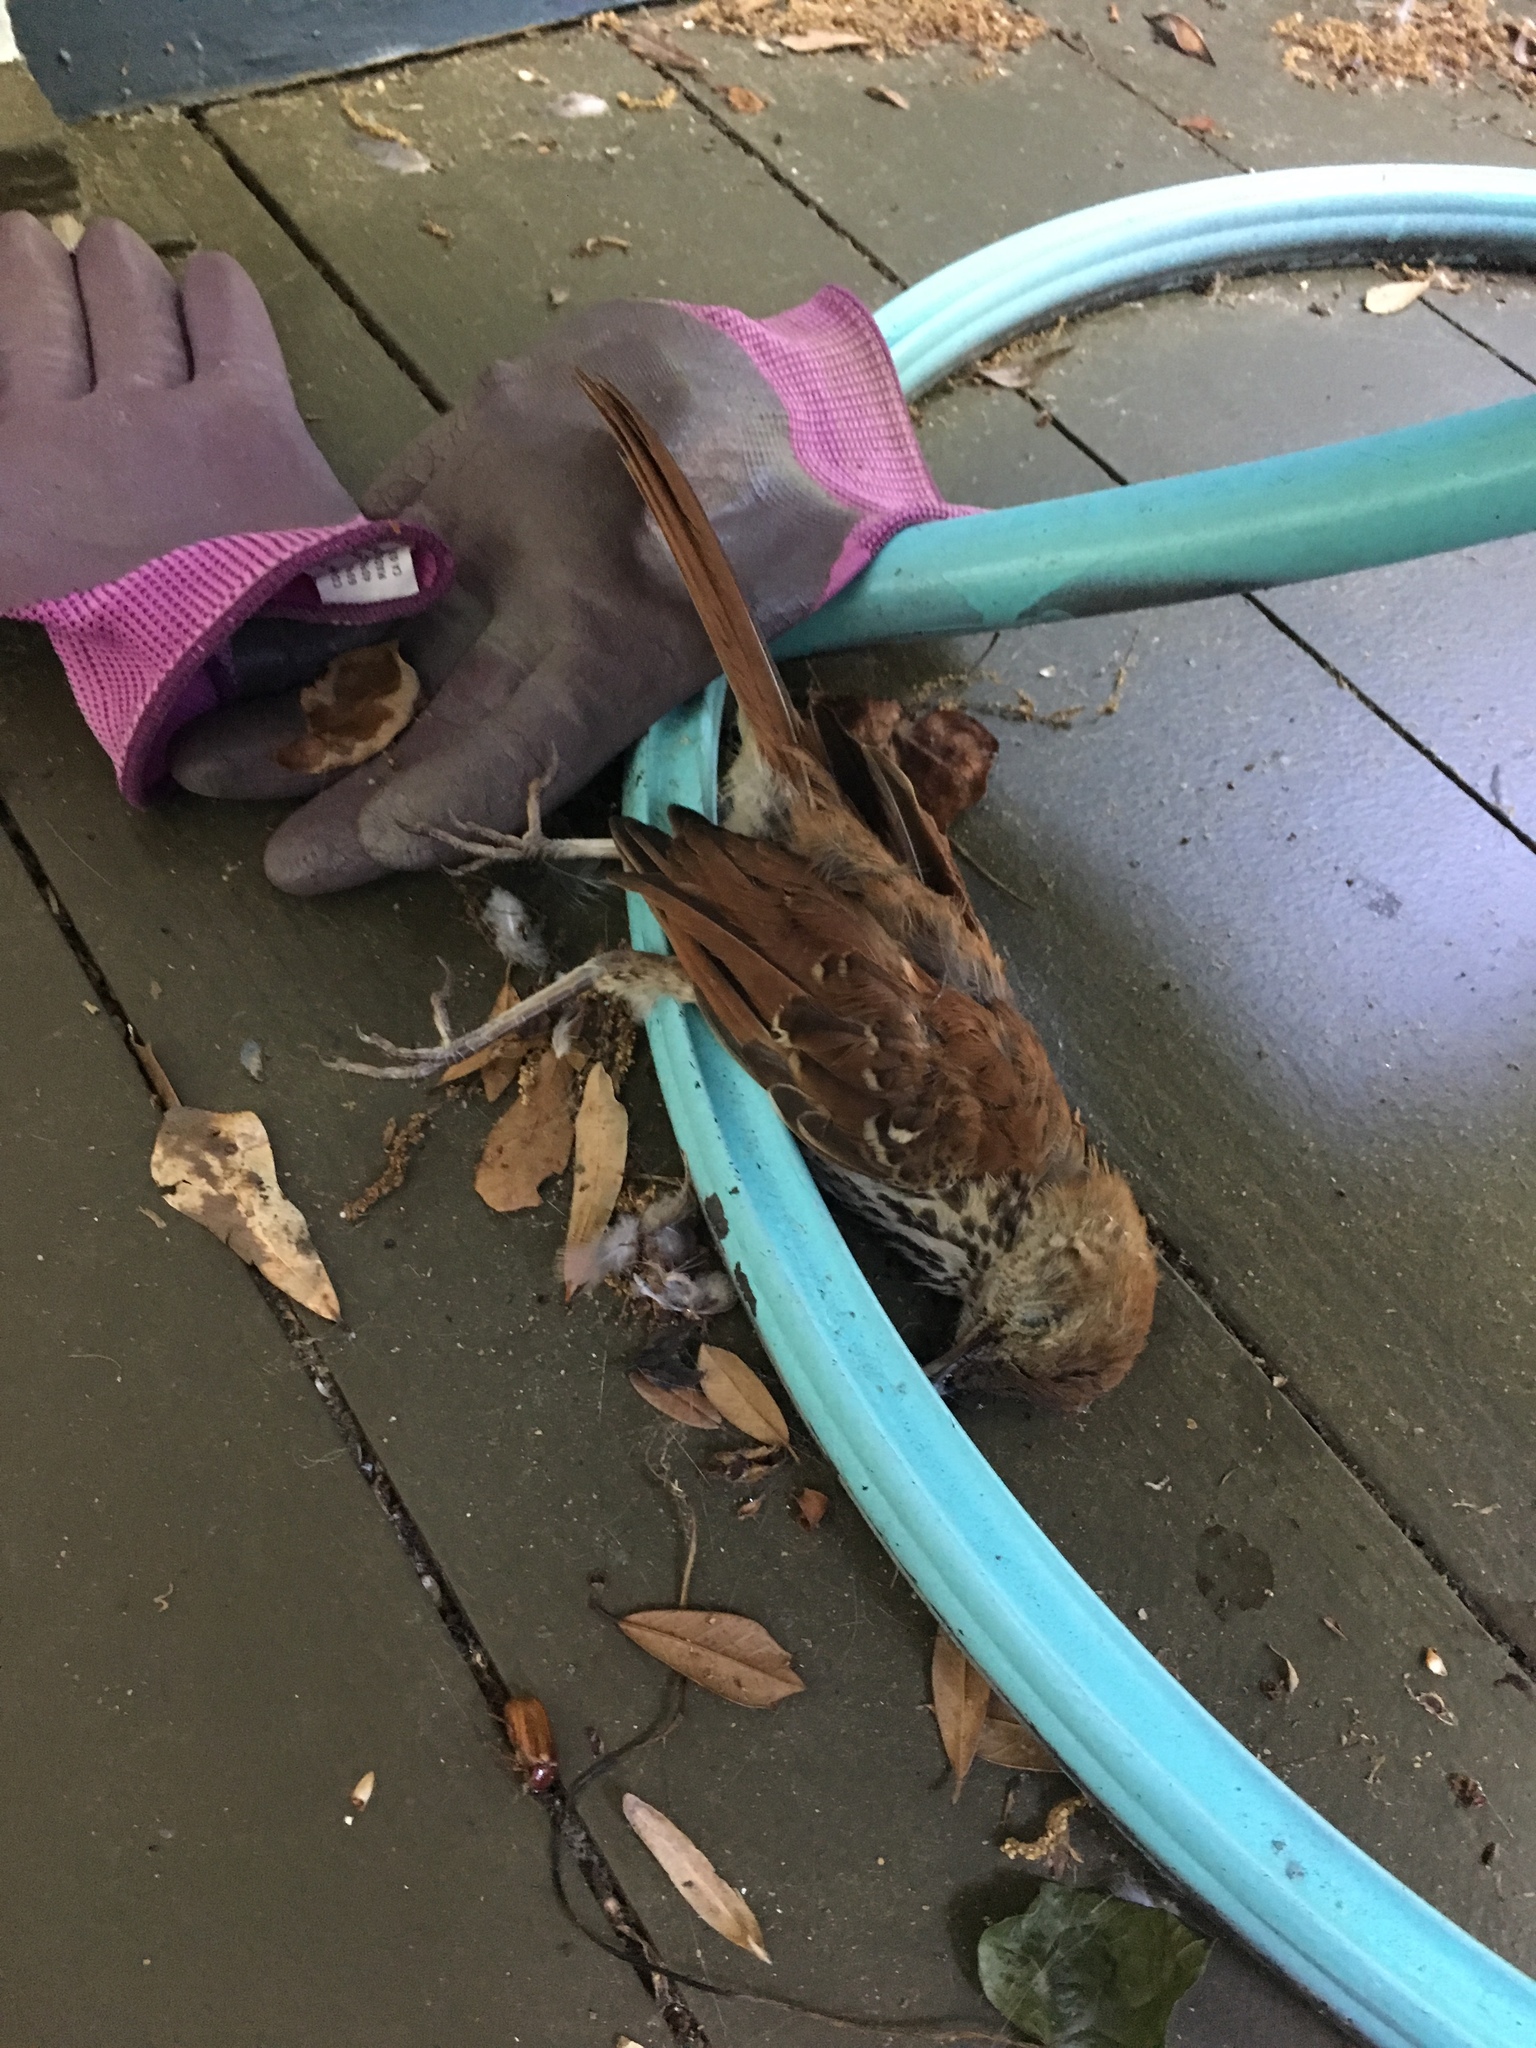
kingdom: Animalia
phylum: Chordata
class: Aves
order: Passeriformes
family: Mimidae
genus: Toxostoma
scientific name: Toxostoma rufum
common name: Brown thrasher
